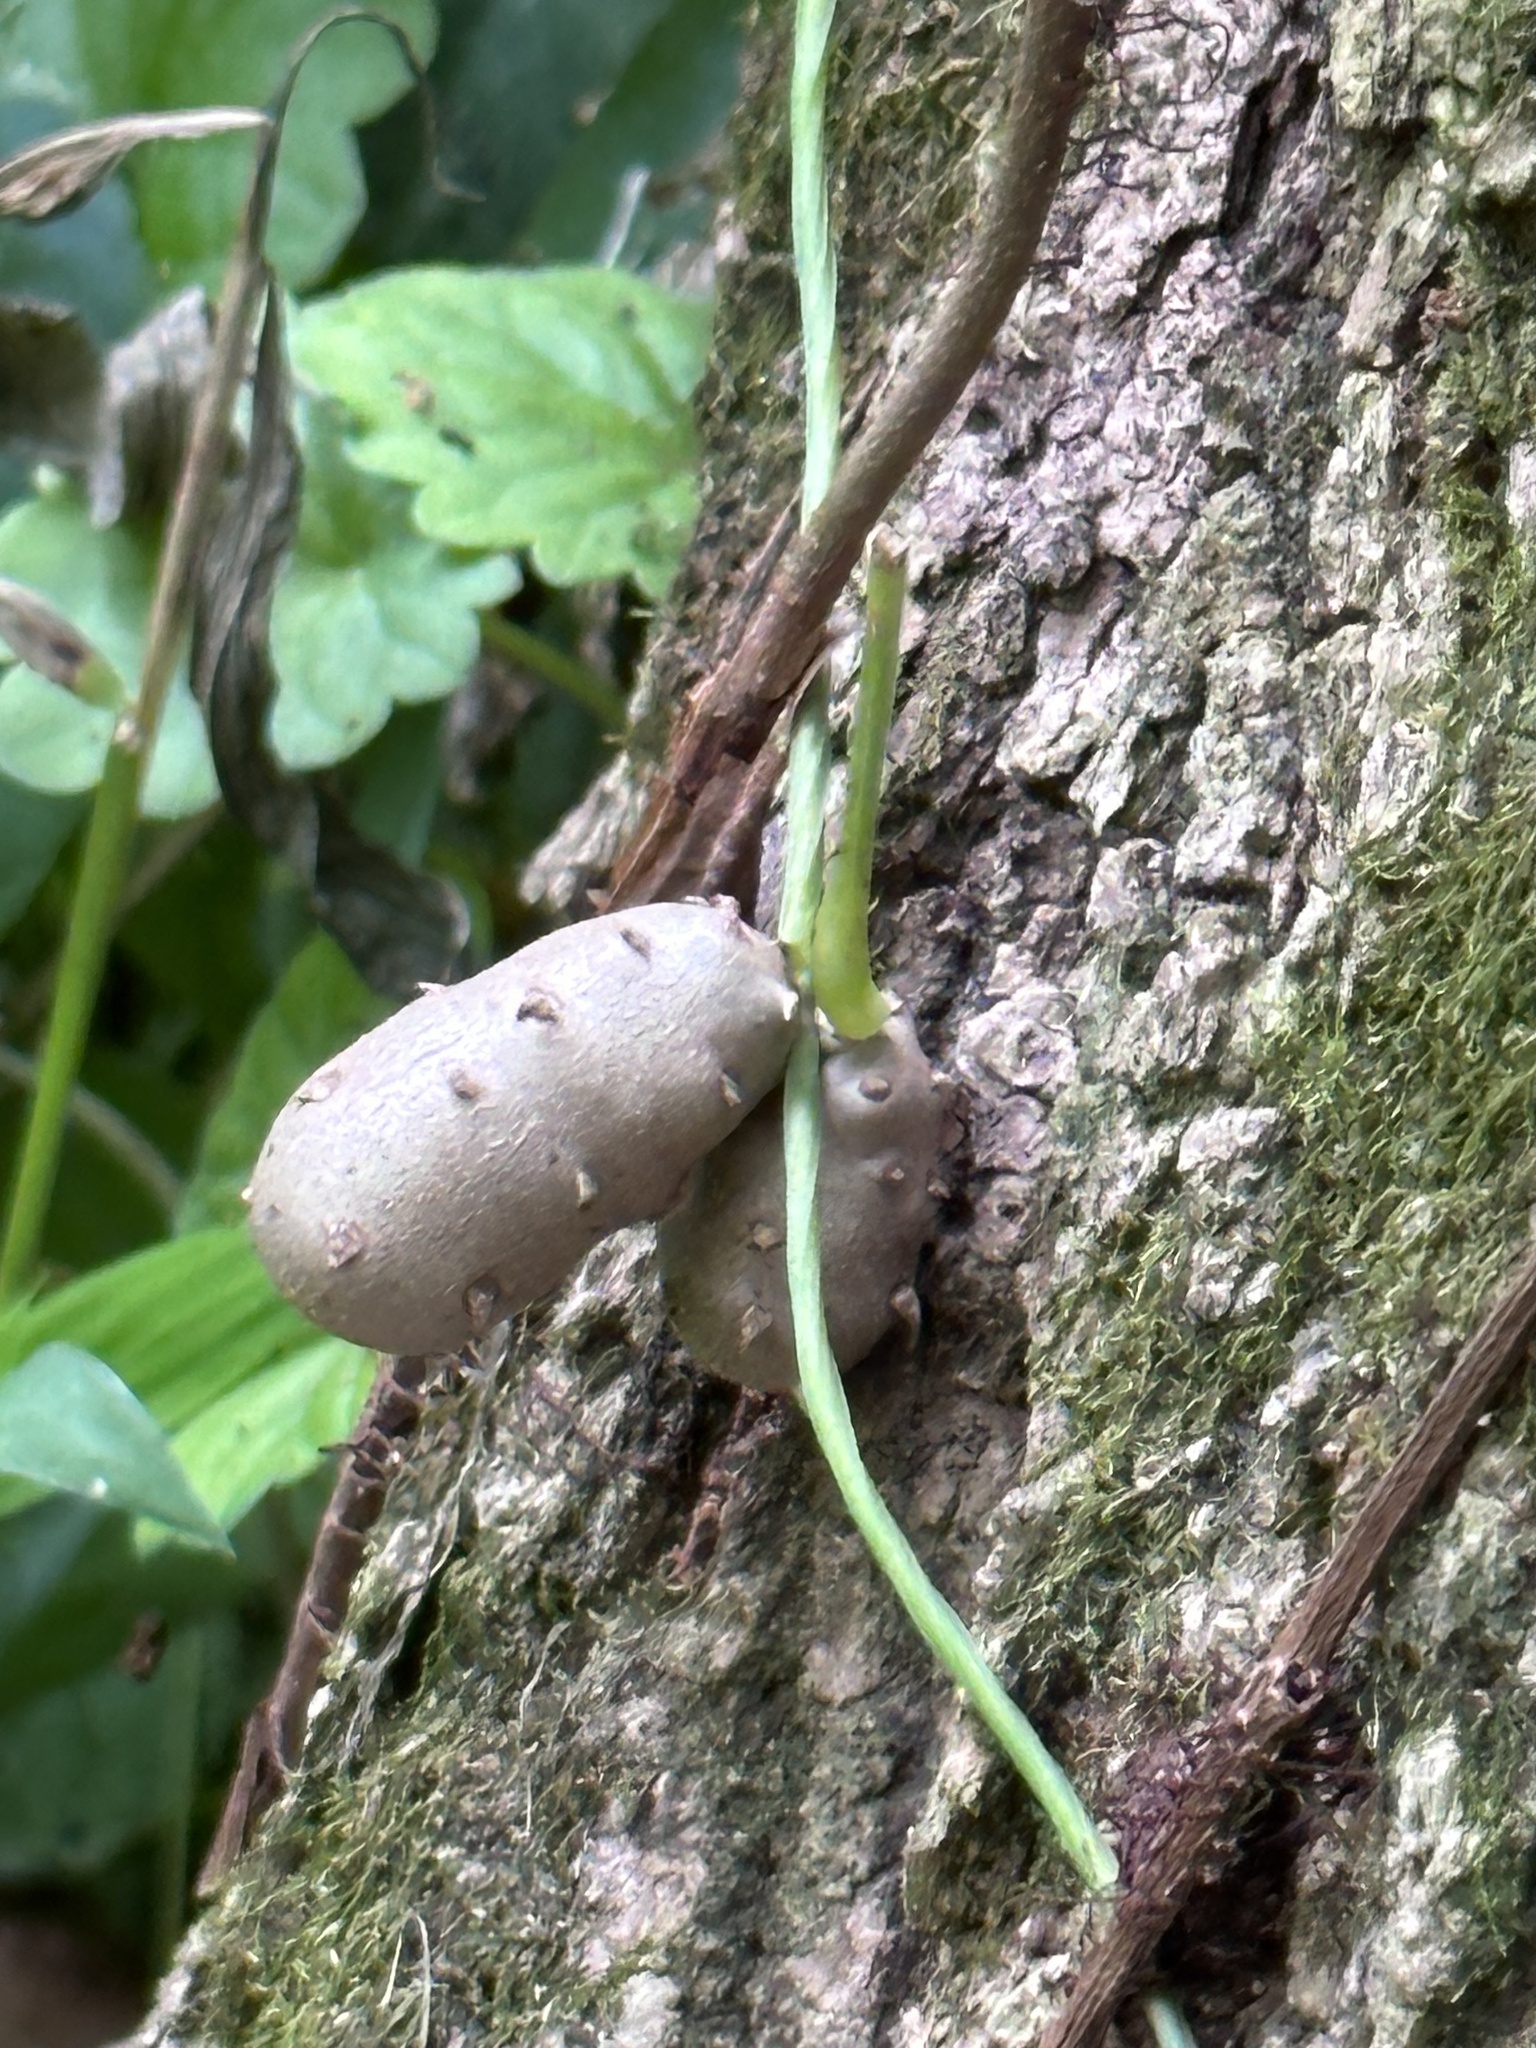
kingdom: Plantae
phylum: Tracheophyta
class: Liliopsida
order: Dioscoreales
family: Dioscoreaceae
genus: Dioscorea
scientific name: Dioscorea polystachya
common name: Chinese yam
